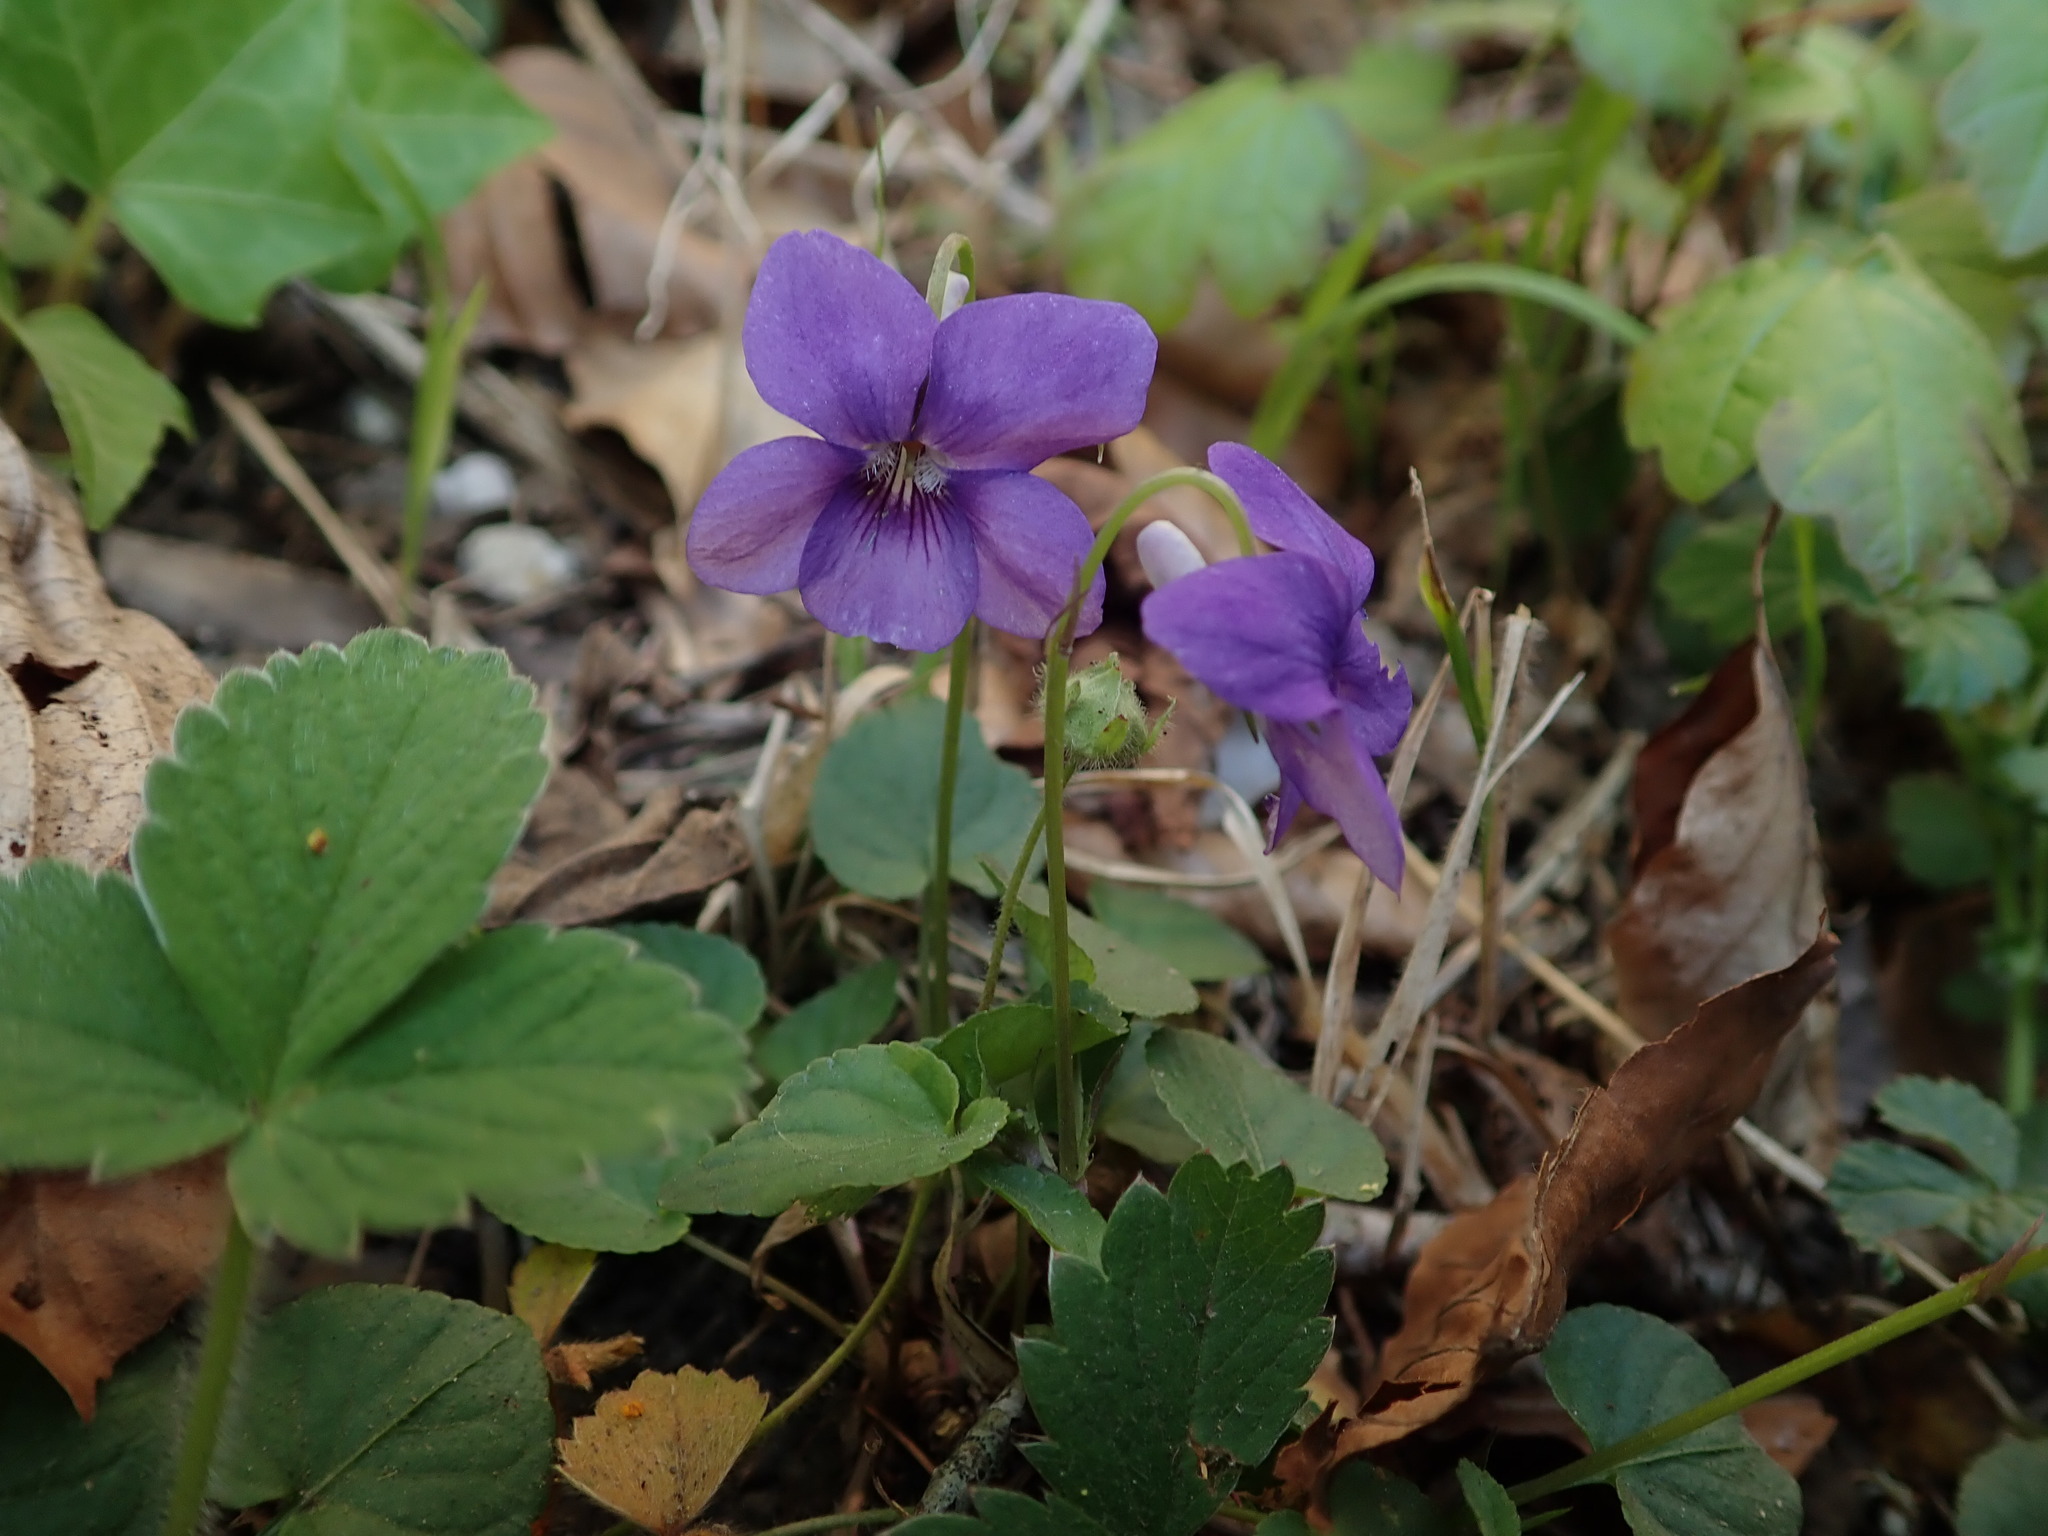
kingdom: Plantae
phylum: Tracheophyta
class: Magnoliopsida
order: Malpighiales
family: Violaceae
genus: Viola
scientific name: Viola riviniana
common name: Common dog-violet
